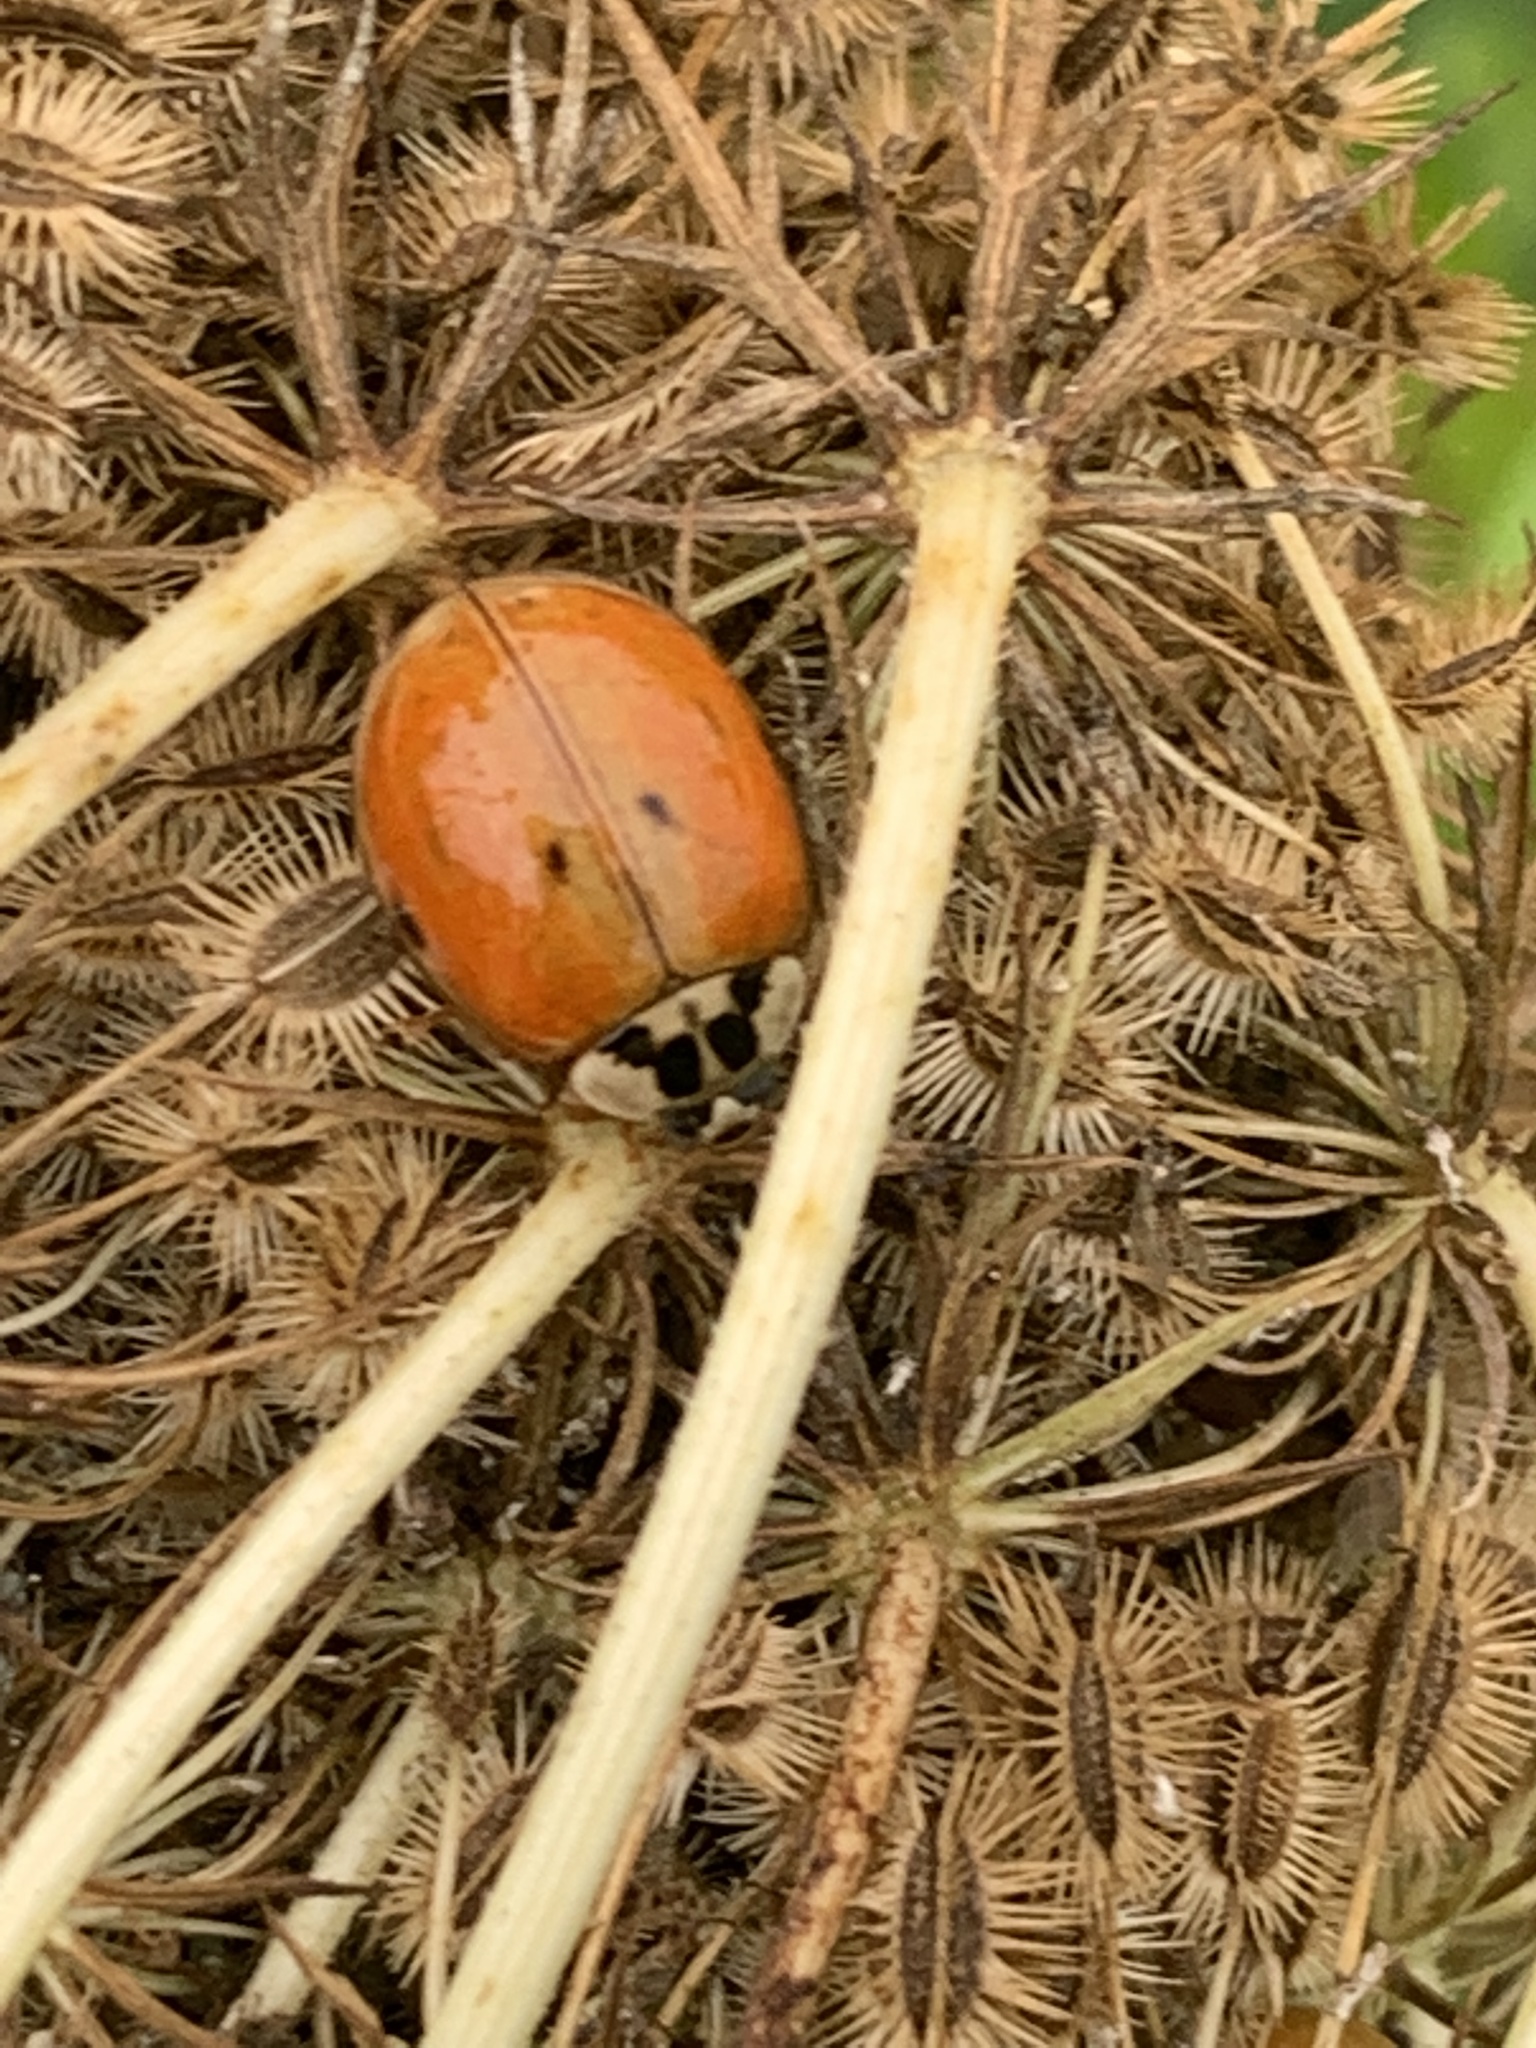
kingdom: Animalia
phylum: Arthropoda
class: Insecta
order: Coleoptera
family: Coccinellidae
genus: Harmonia
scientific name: Harmonia axyridis
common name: Harlequin ladybird
